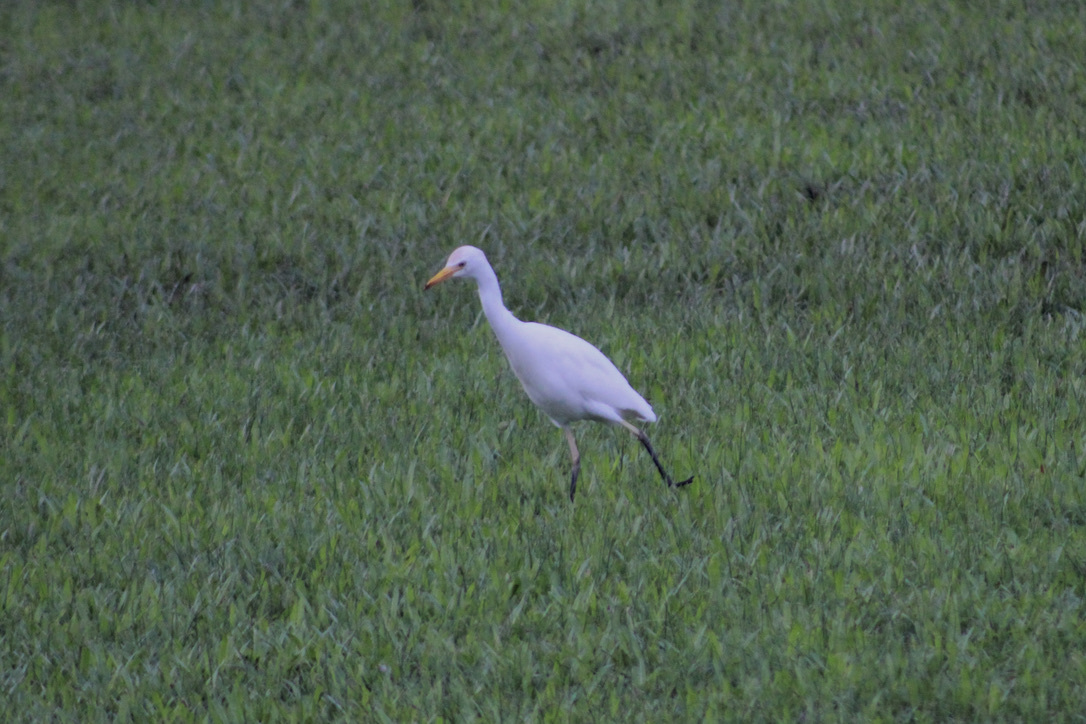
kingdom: Animalia
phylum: Chordata
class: Aves
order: Pelecaniformes
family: Ardeidae
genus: Bubulcus
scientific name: Bubulcus ibis
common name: Cattle egret
